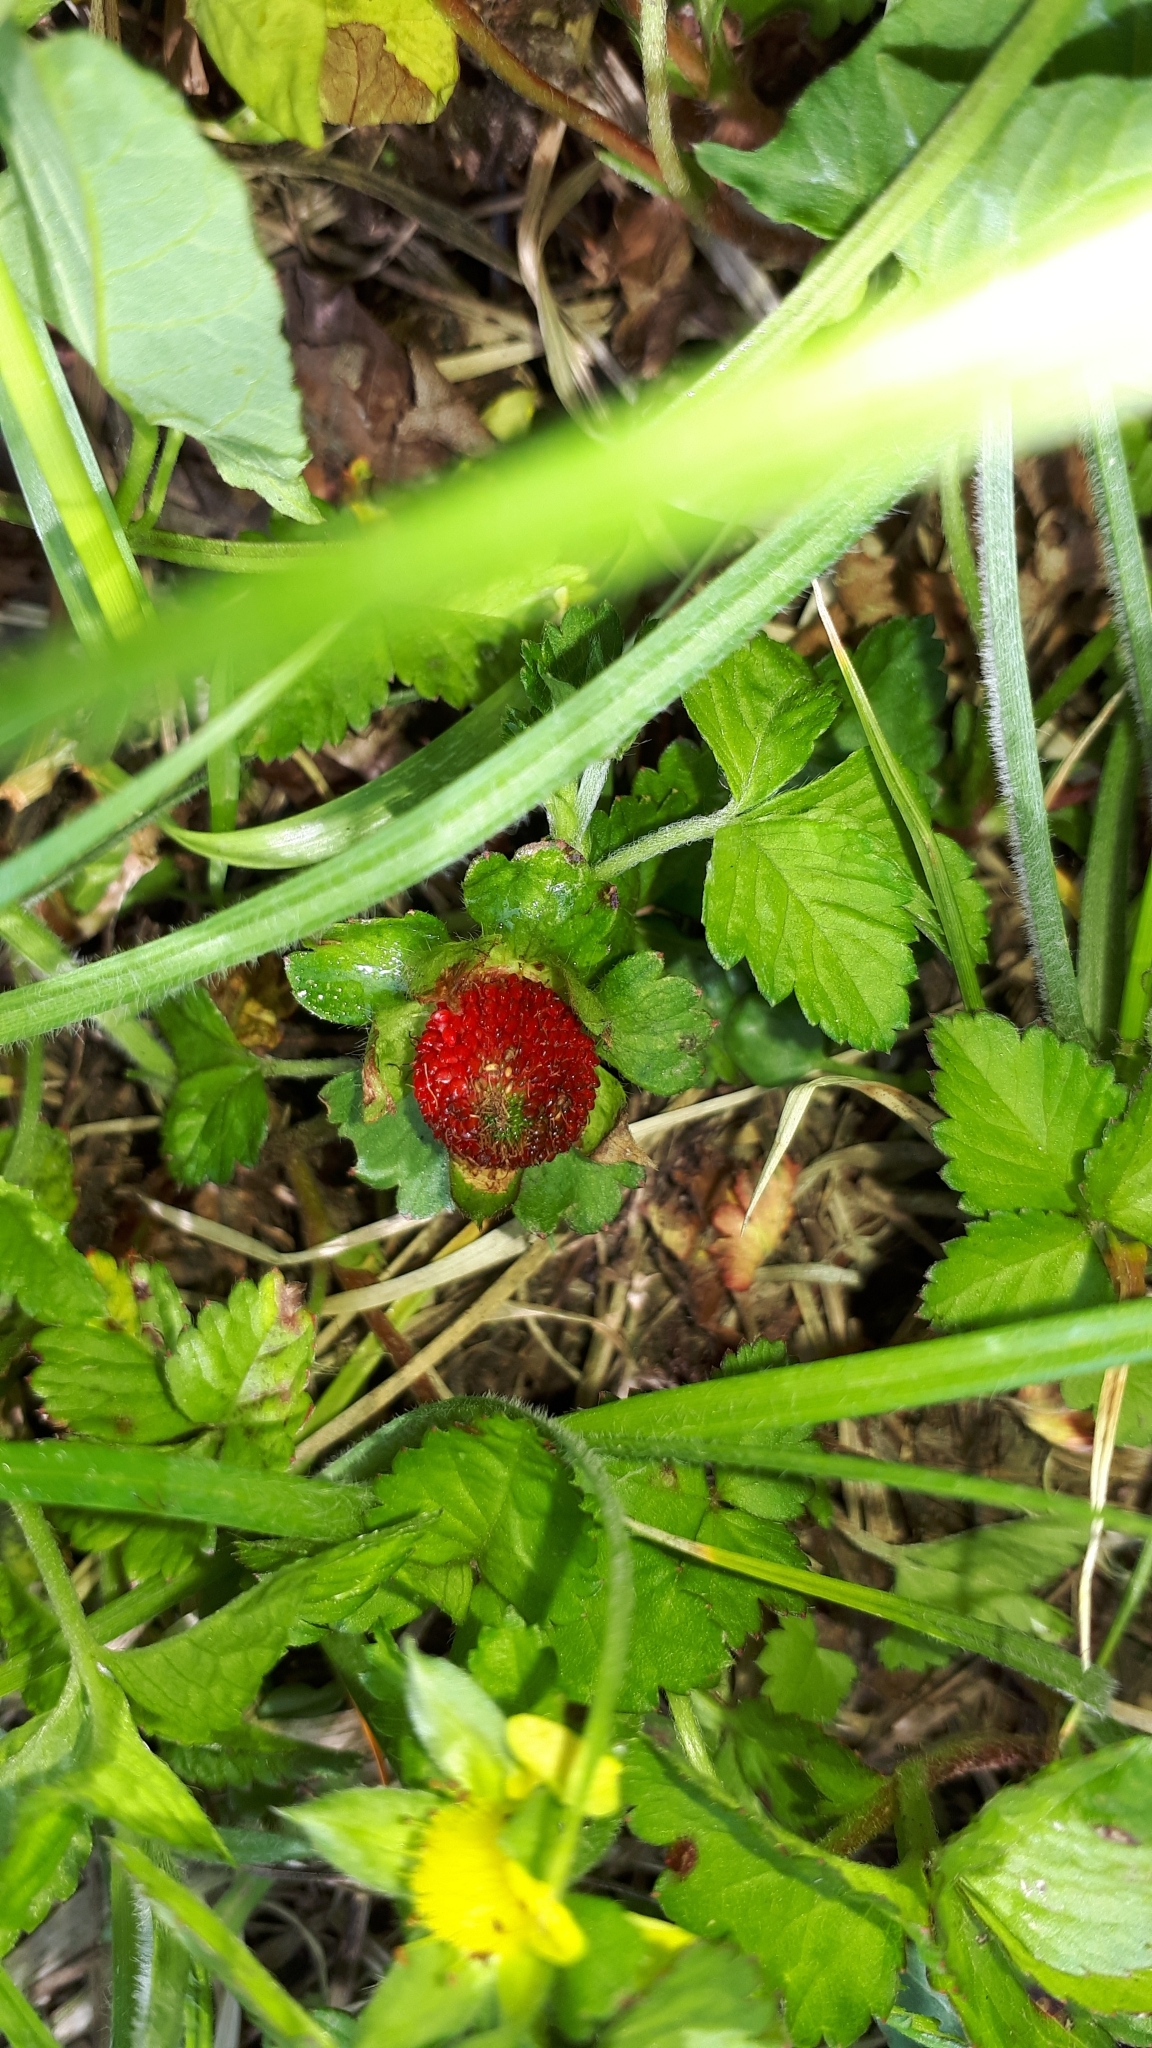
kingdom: Plantae
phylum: Tracheophyta
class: Magnoliopsida
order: Rosales
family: Rosaceae
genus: Potentilla
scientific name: Potentilla indica
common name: Yellow-flowered strawberry
